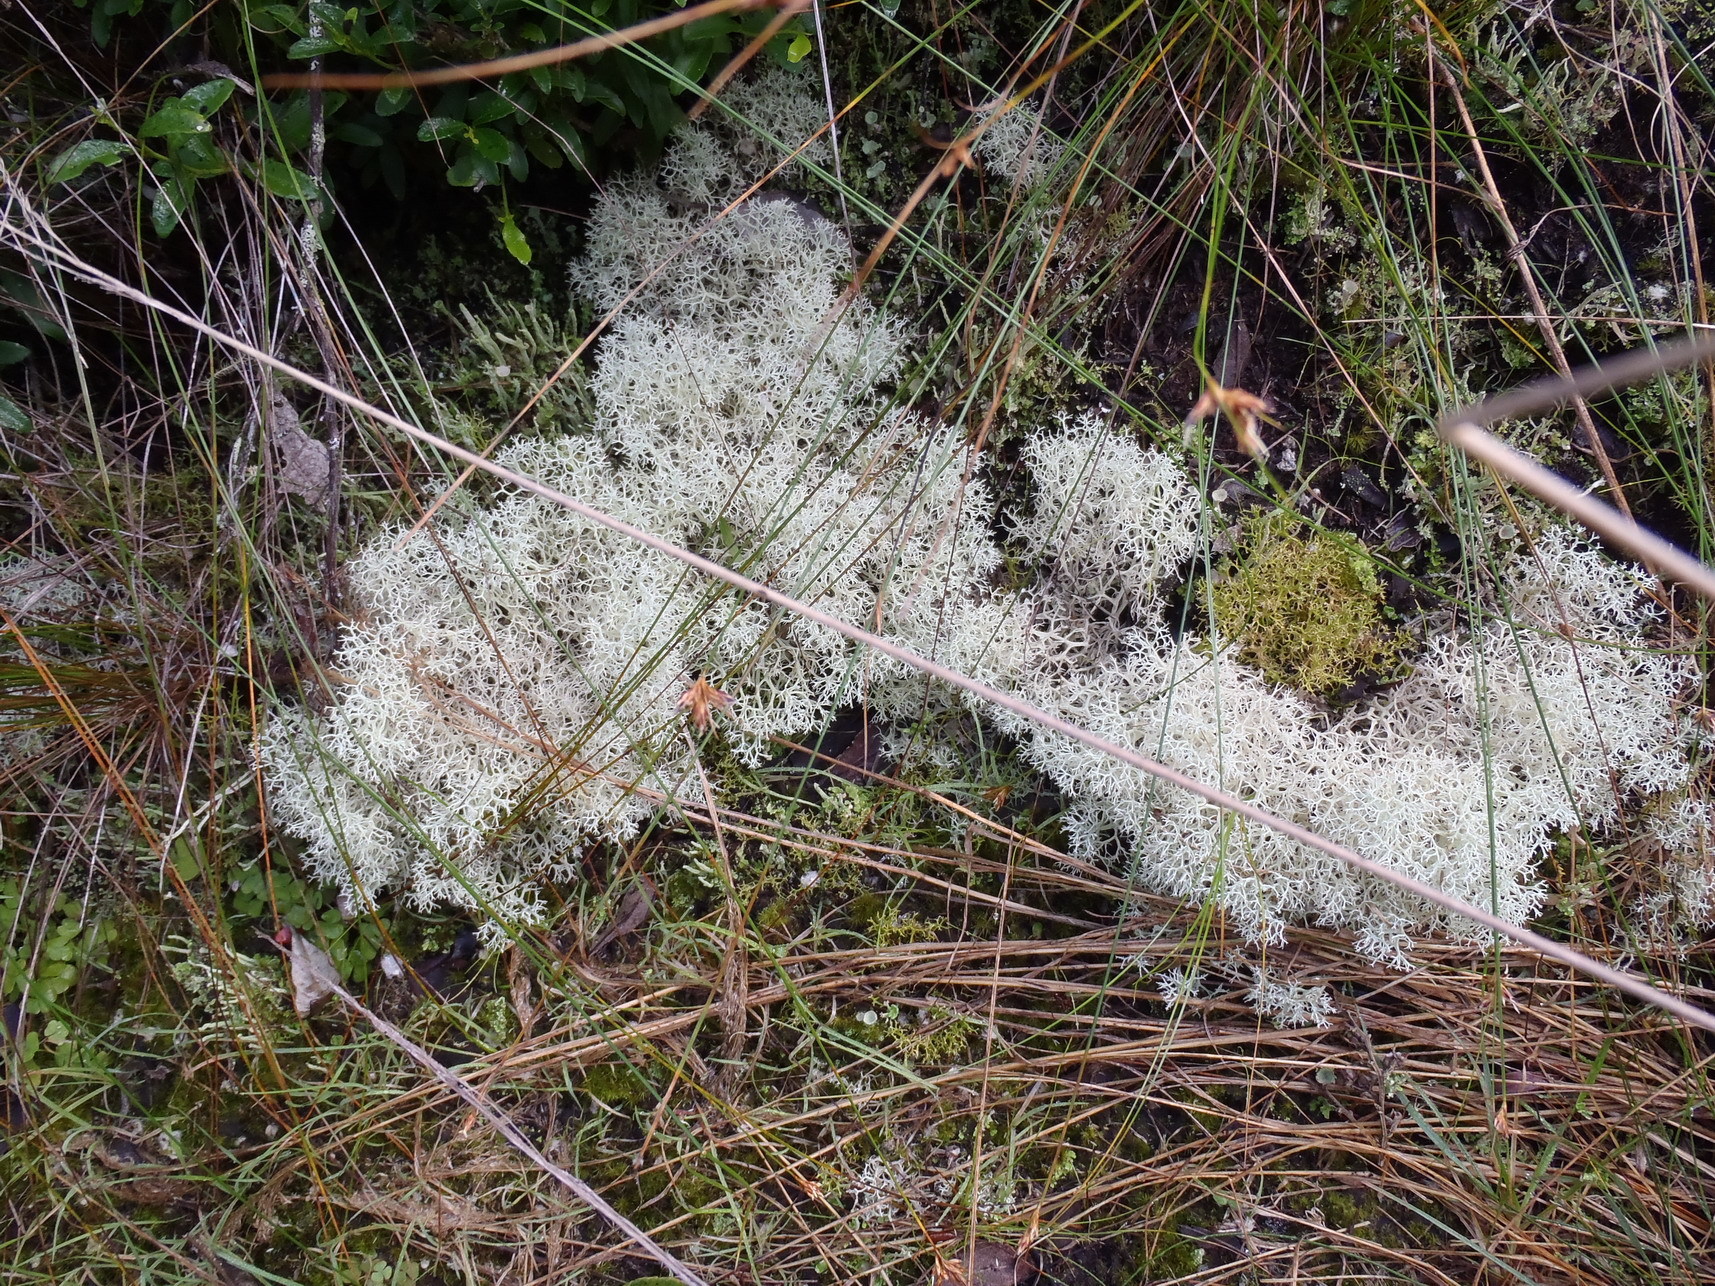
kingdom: Fungi
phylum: Ascomycota
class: Lecanoromycetes
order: Lecanorales
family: Cladoniaceae
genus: Cladonia
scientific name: Cladonia confusa
